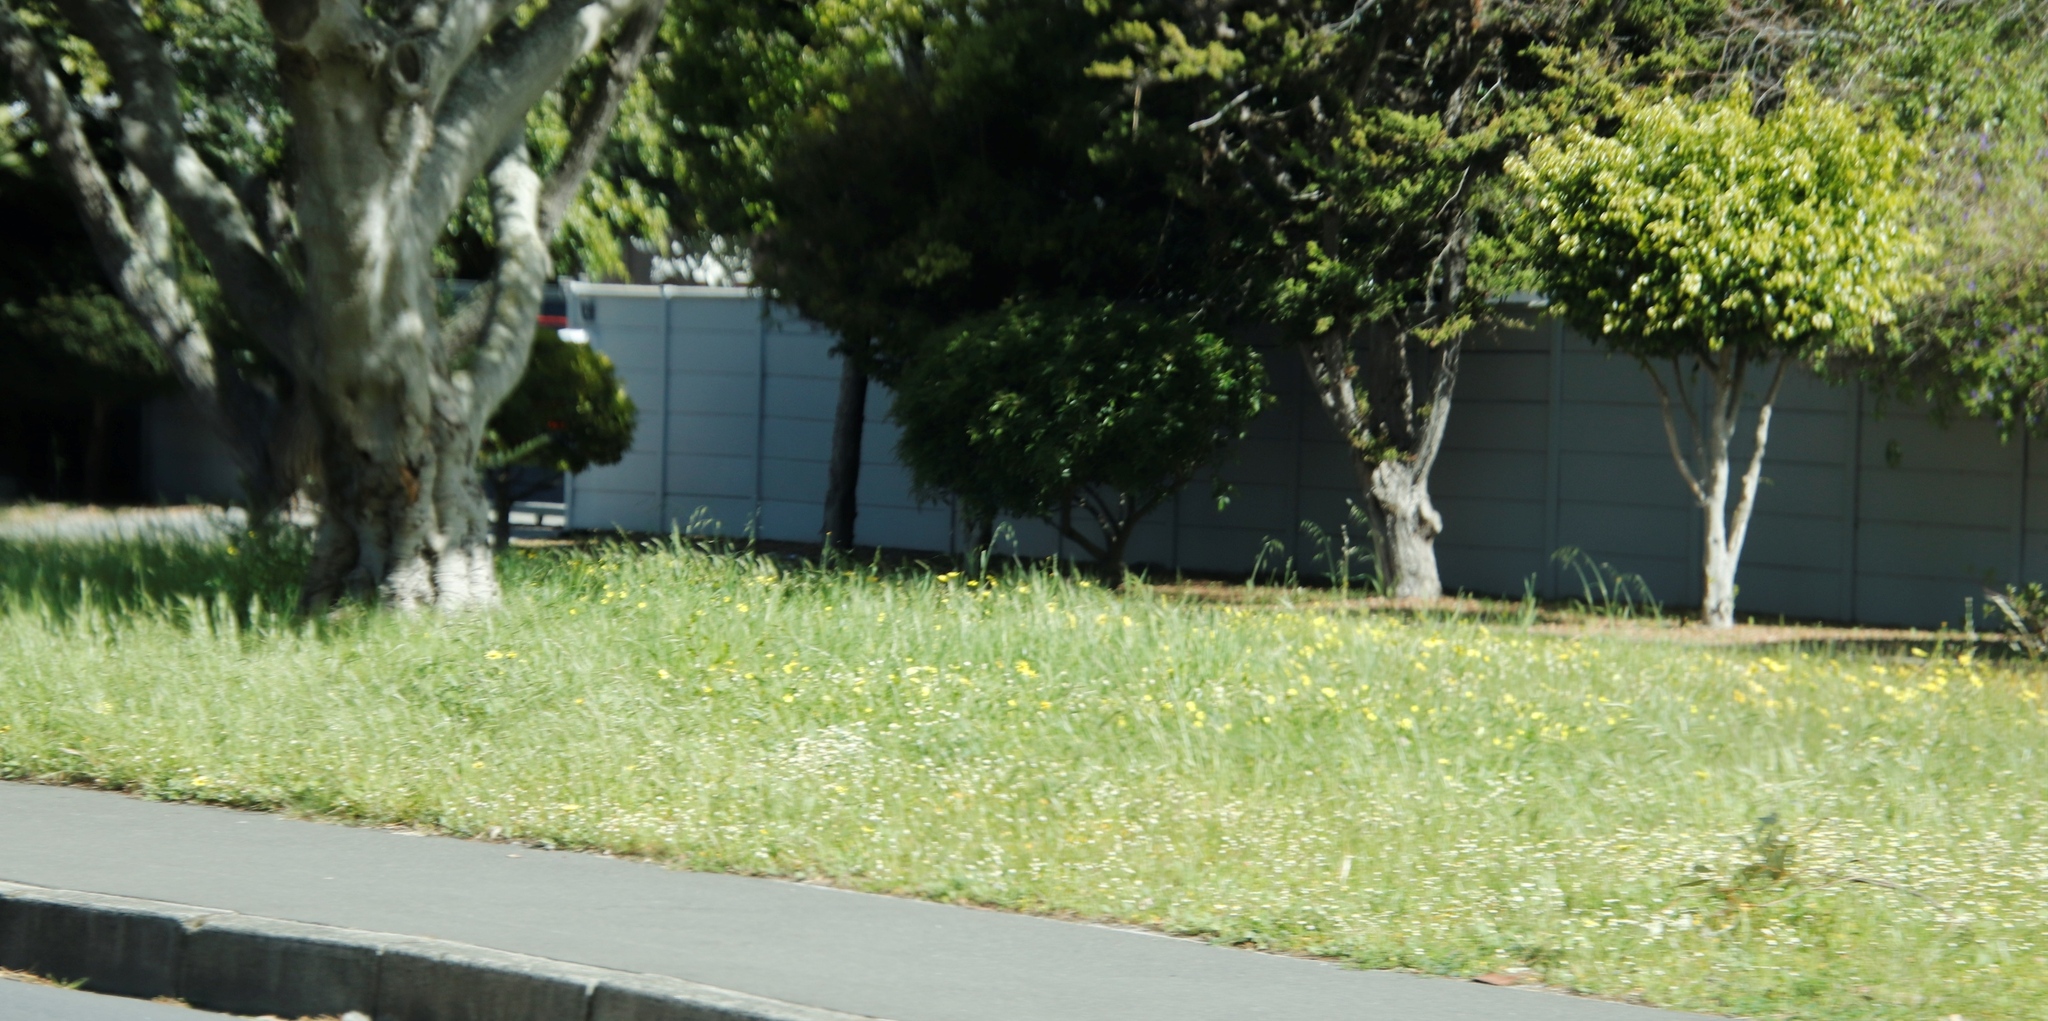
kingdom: Plantae
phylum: Tracheophyta
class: Magnoliopsida
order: Oxalidales
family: Oxalidaceae
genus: Oxalis
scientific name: Oxalis pes-caprae
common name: Bermuda-buttercup
